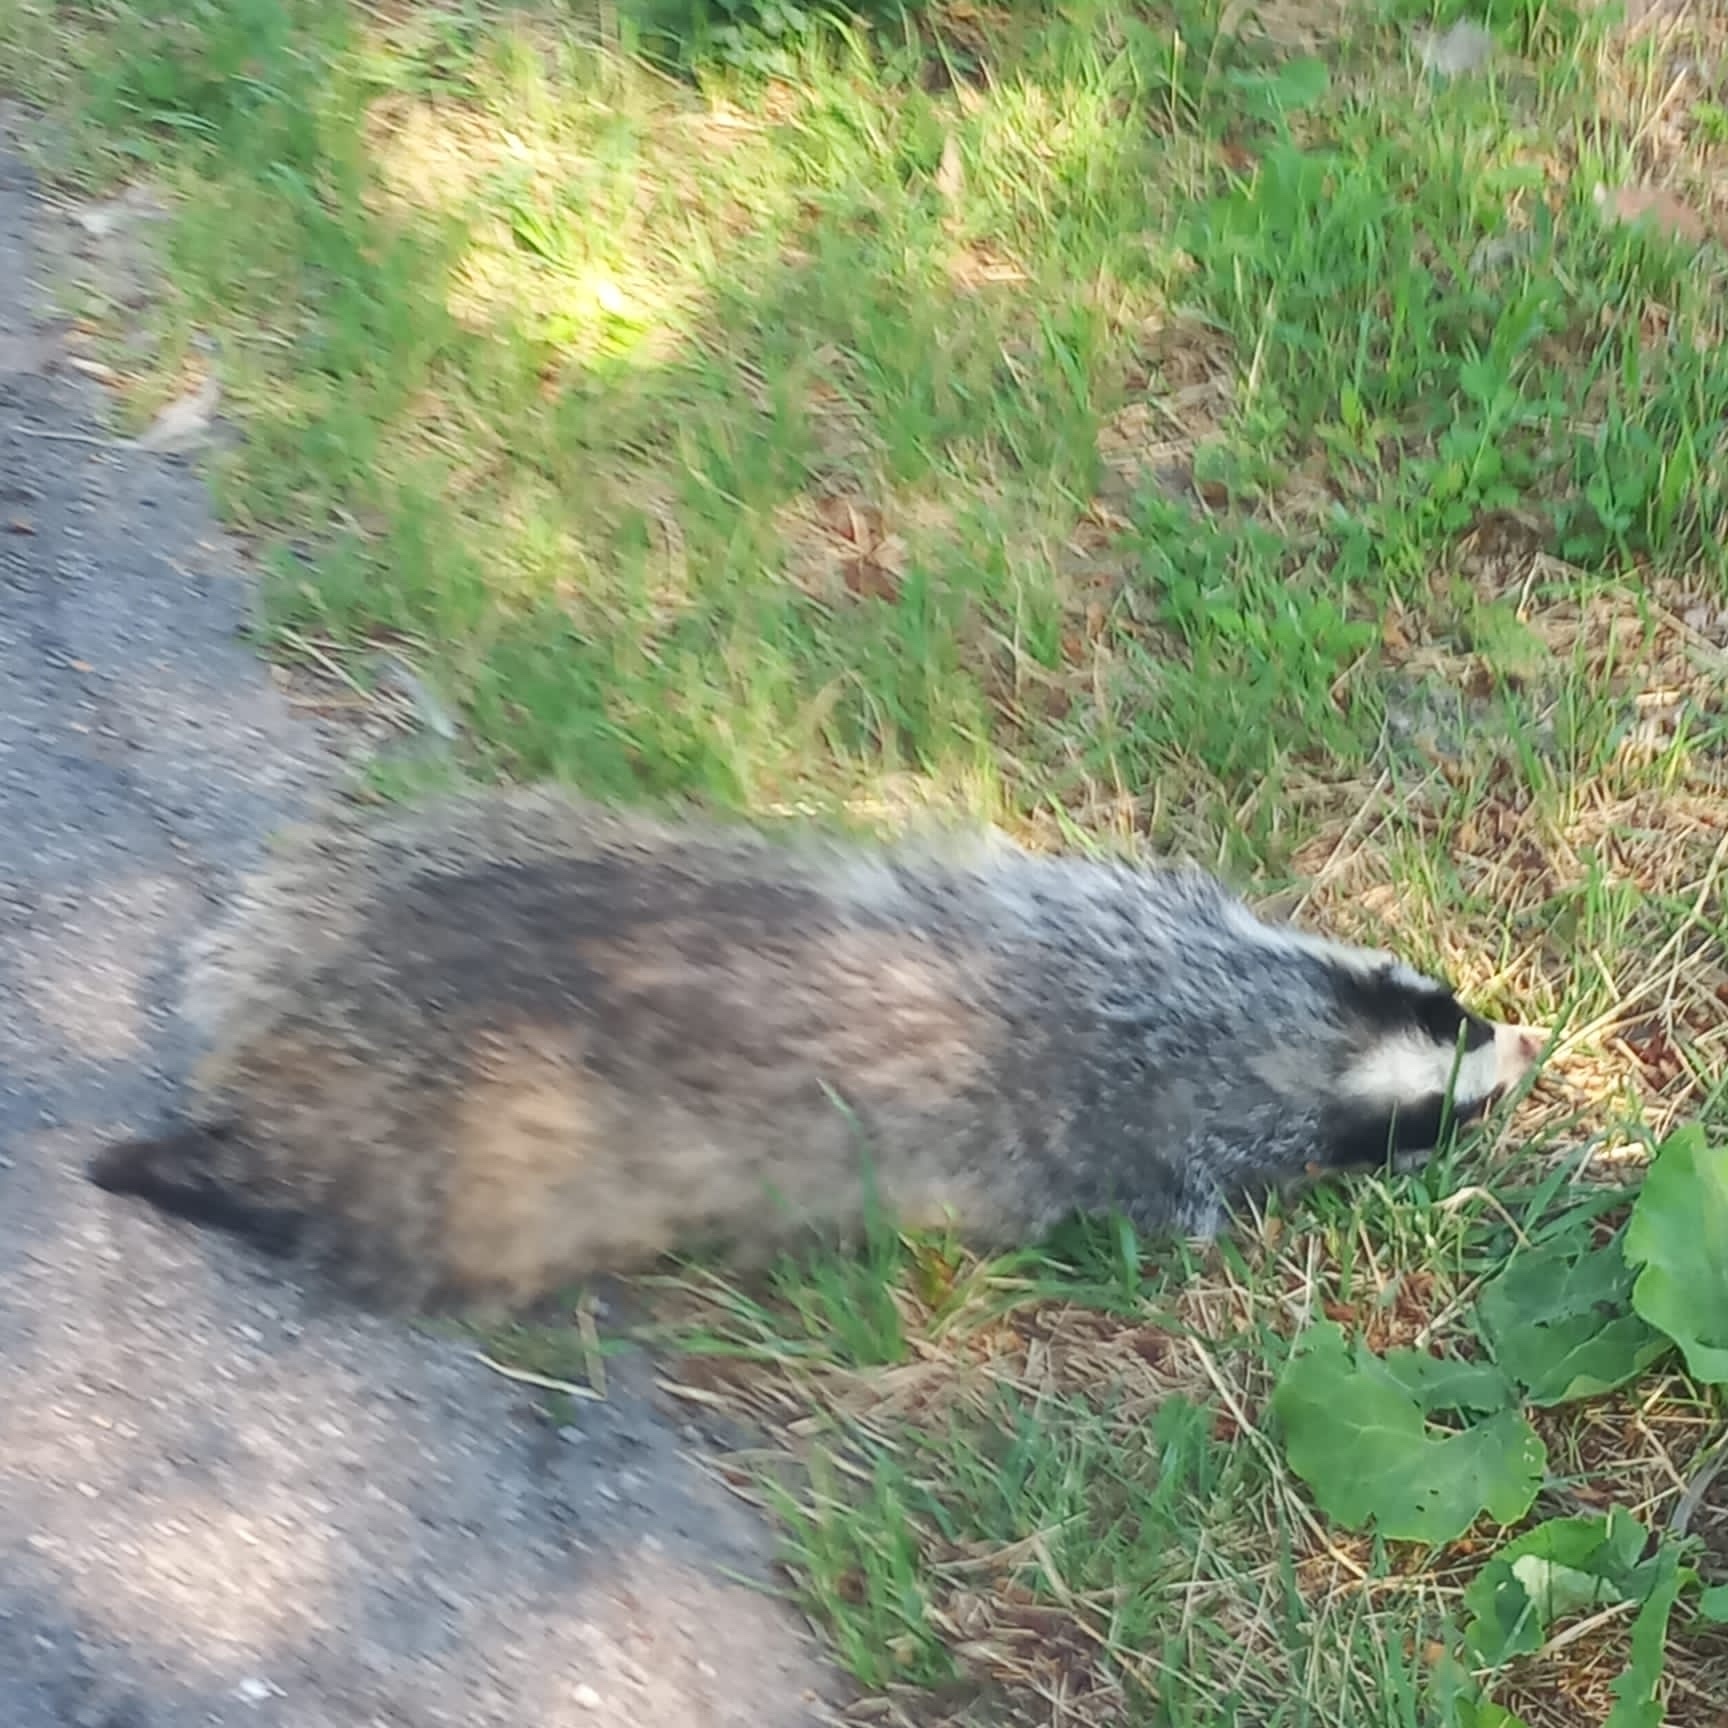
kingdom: Animalia
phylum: Chordata
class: Mammalia
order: Carnivora
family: Mustelidae
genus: Meles
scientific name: Meles meles
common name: Eurasian badger
